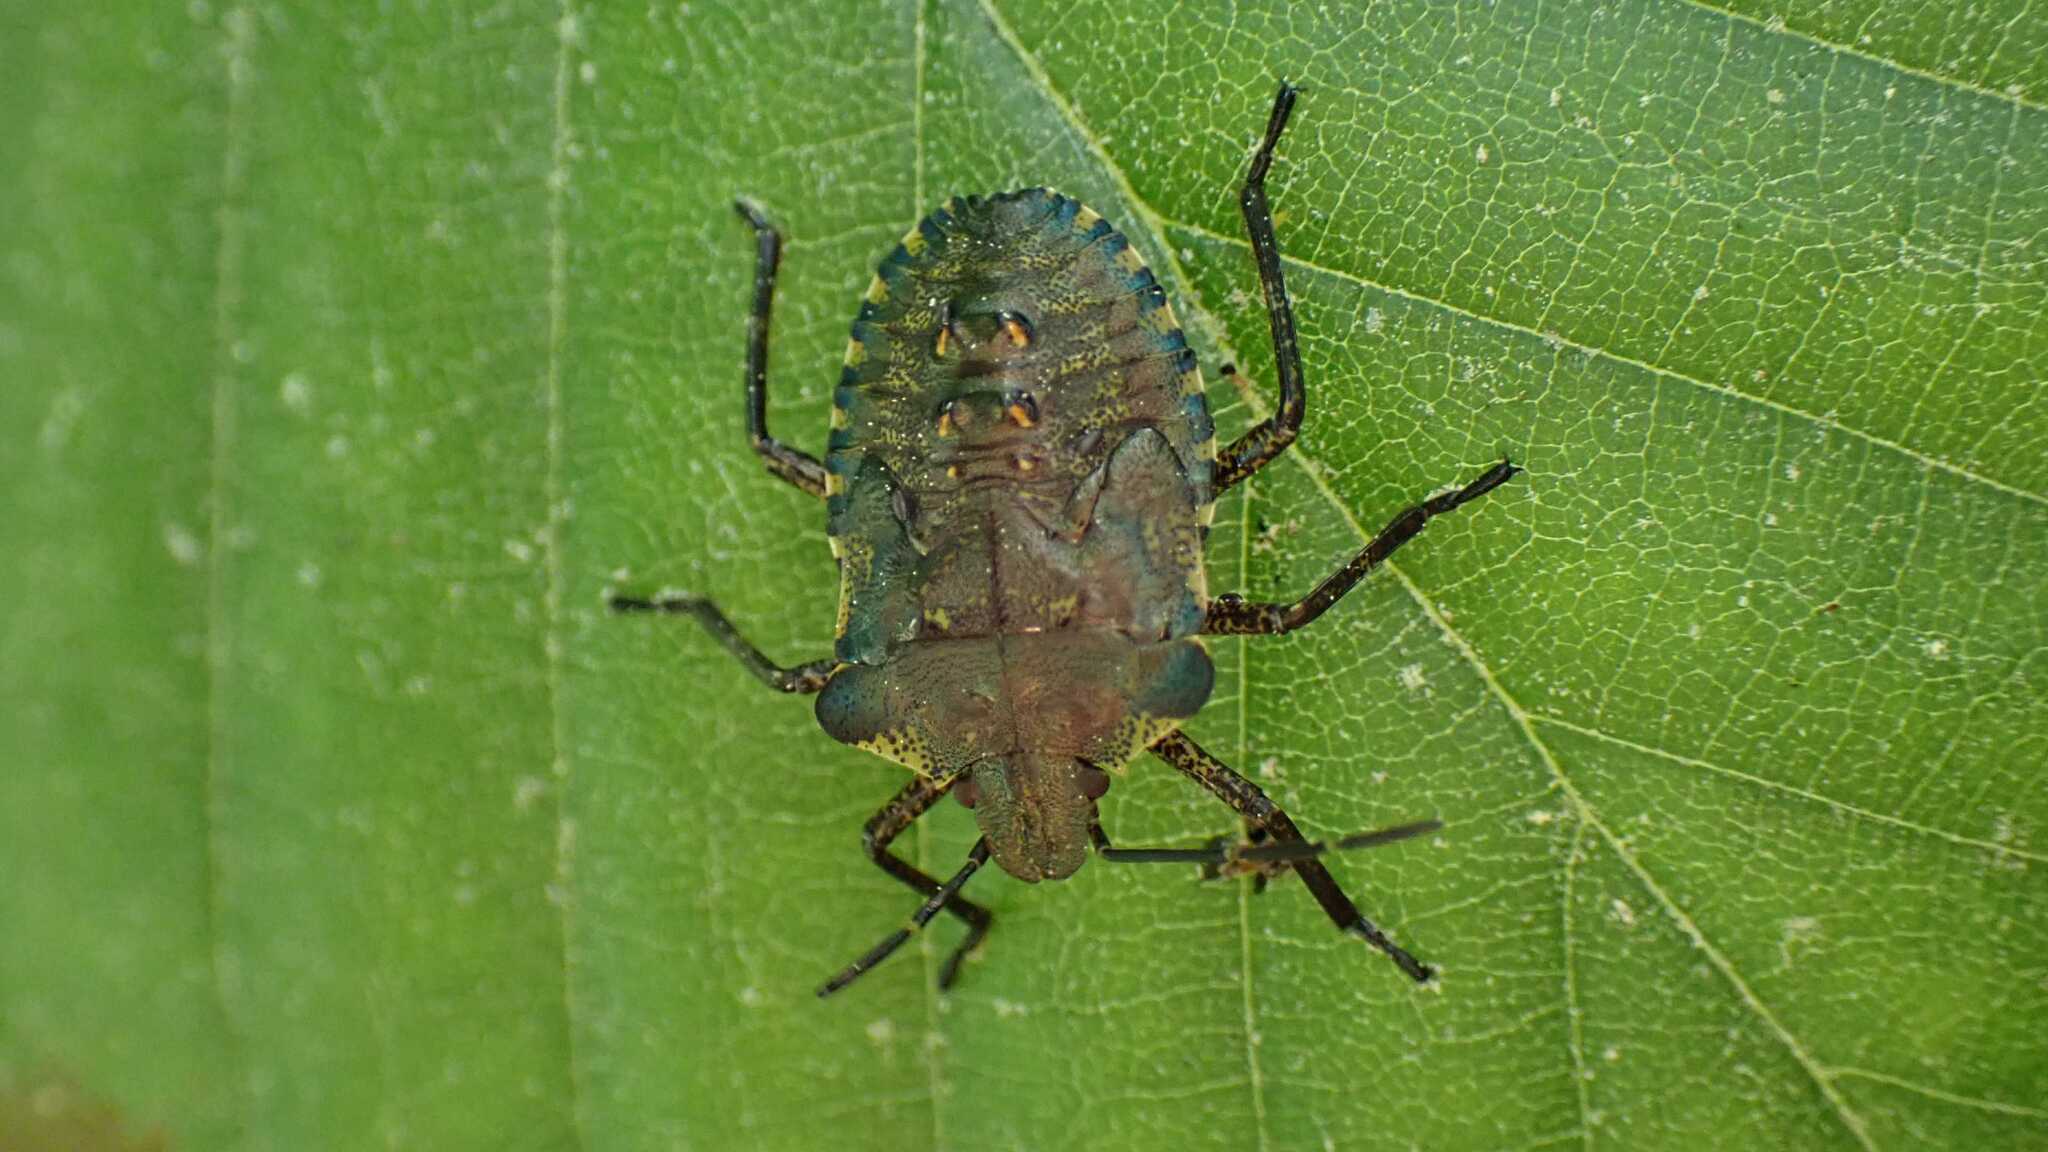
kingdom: Animalia
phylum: Arthropoda
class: Insecta
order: Hemiptera
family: Pentatomidae
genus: Pentatoma
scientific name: Pentatoma rufipes
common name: Forest bug
